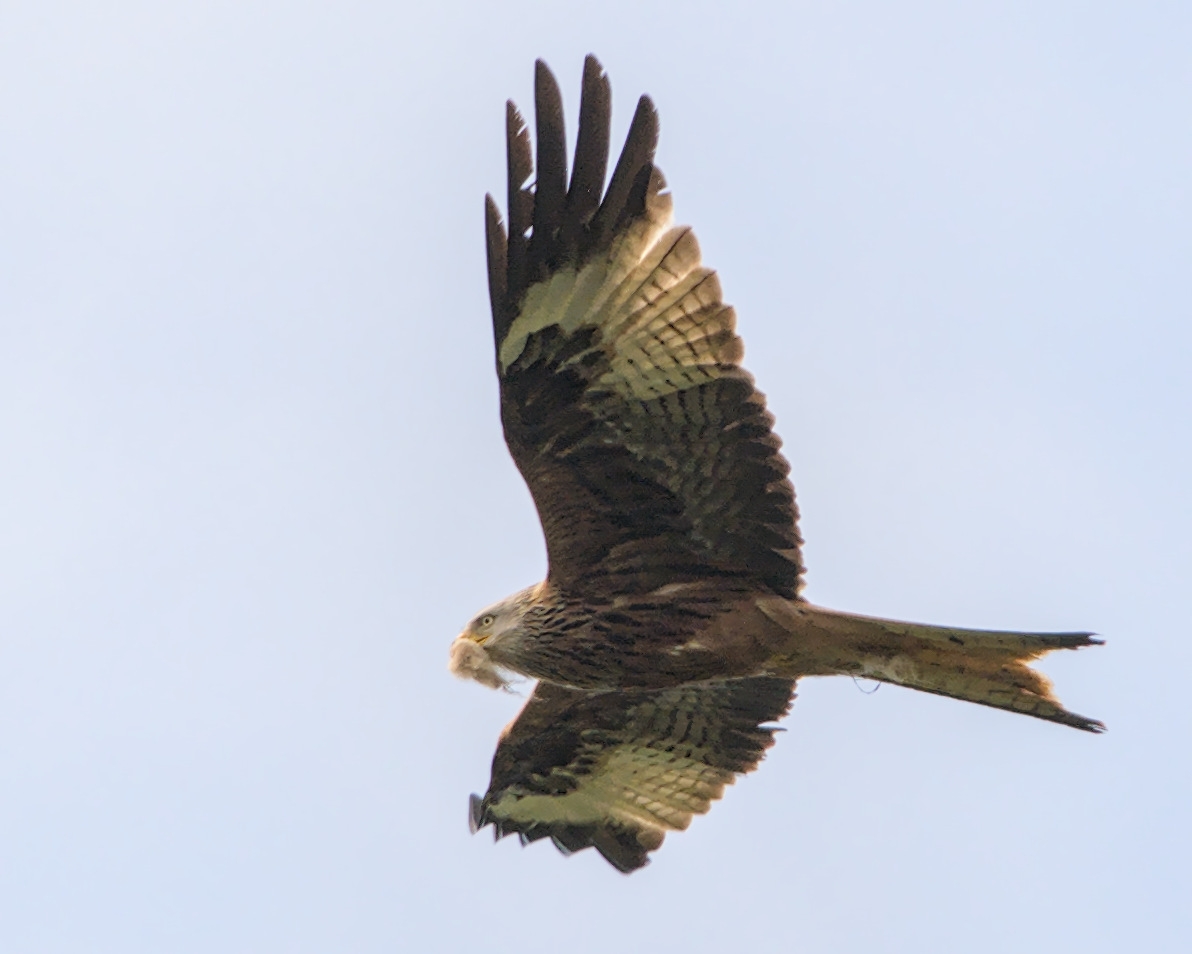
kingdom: Animalia
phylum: Chordata
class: Aves
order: Accipitriformes
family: Accipitridae
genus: Milvus
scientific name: Milvus milvus
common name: Red kite
